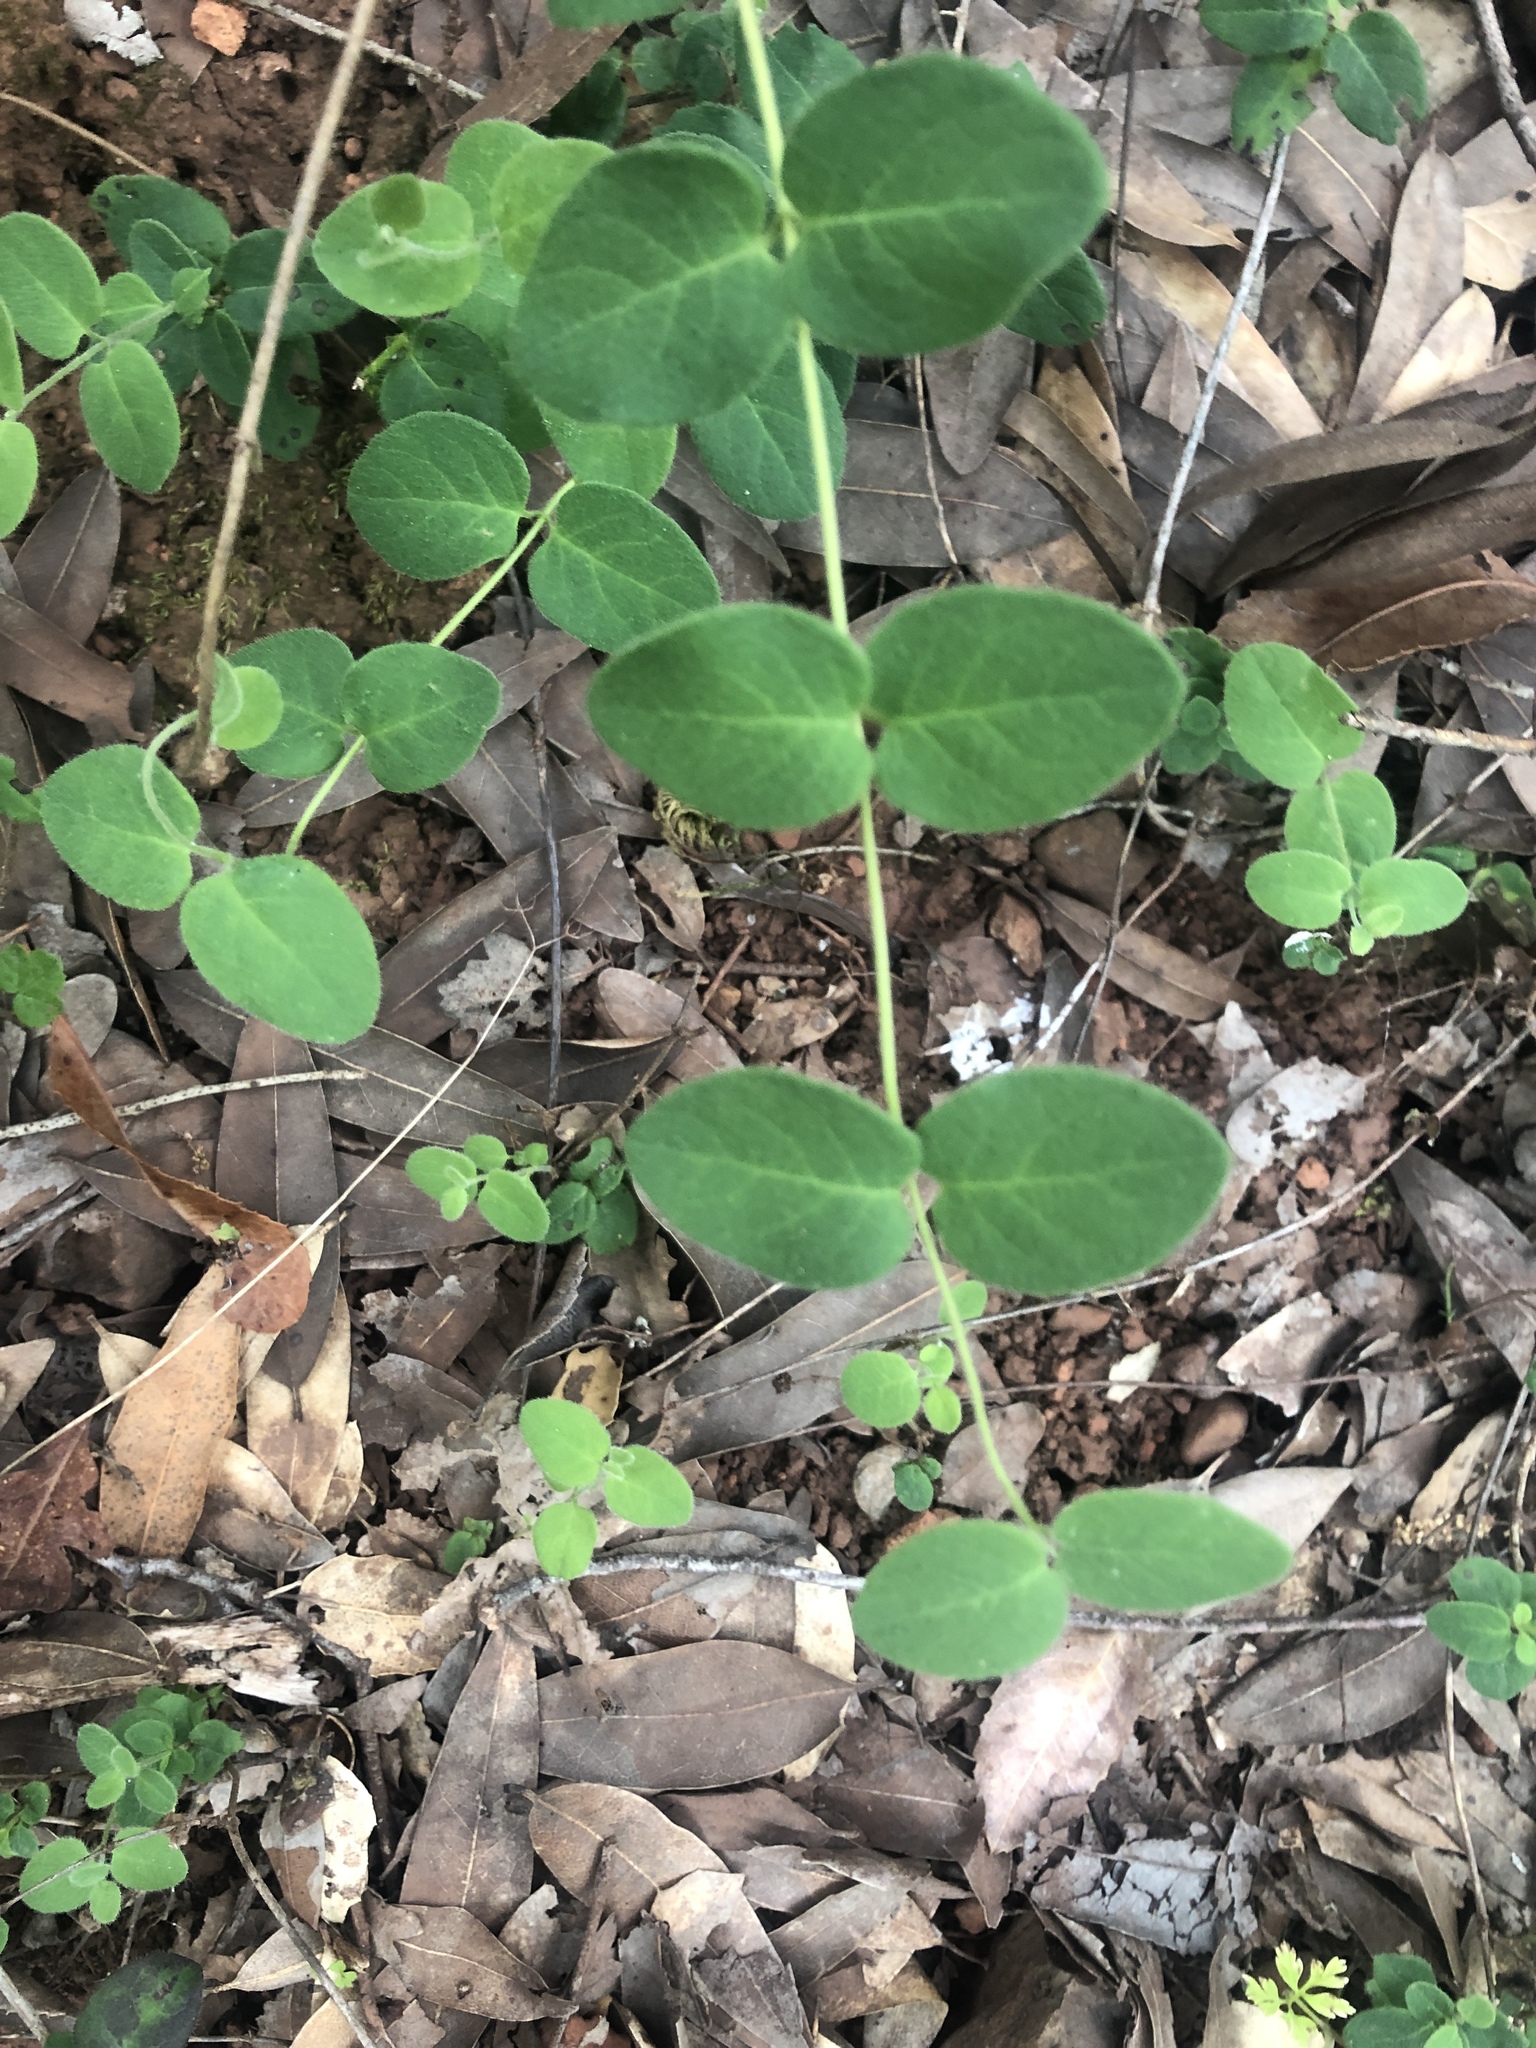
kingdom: Plantae
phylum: Tracheophyta
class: Magnoliopsida
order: Dipsacales
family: Caprifoliaceae
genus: Lonicera
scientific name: Lonicera hispidula
